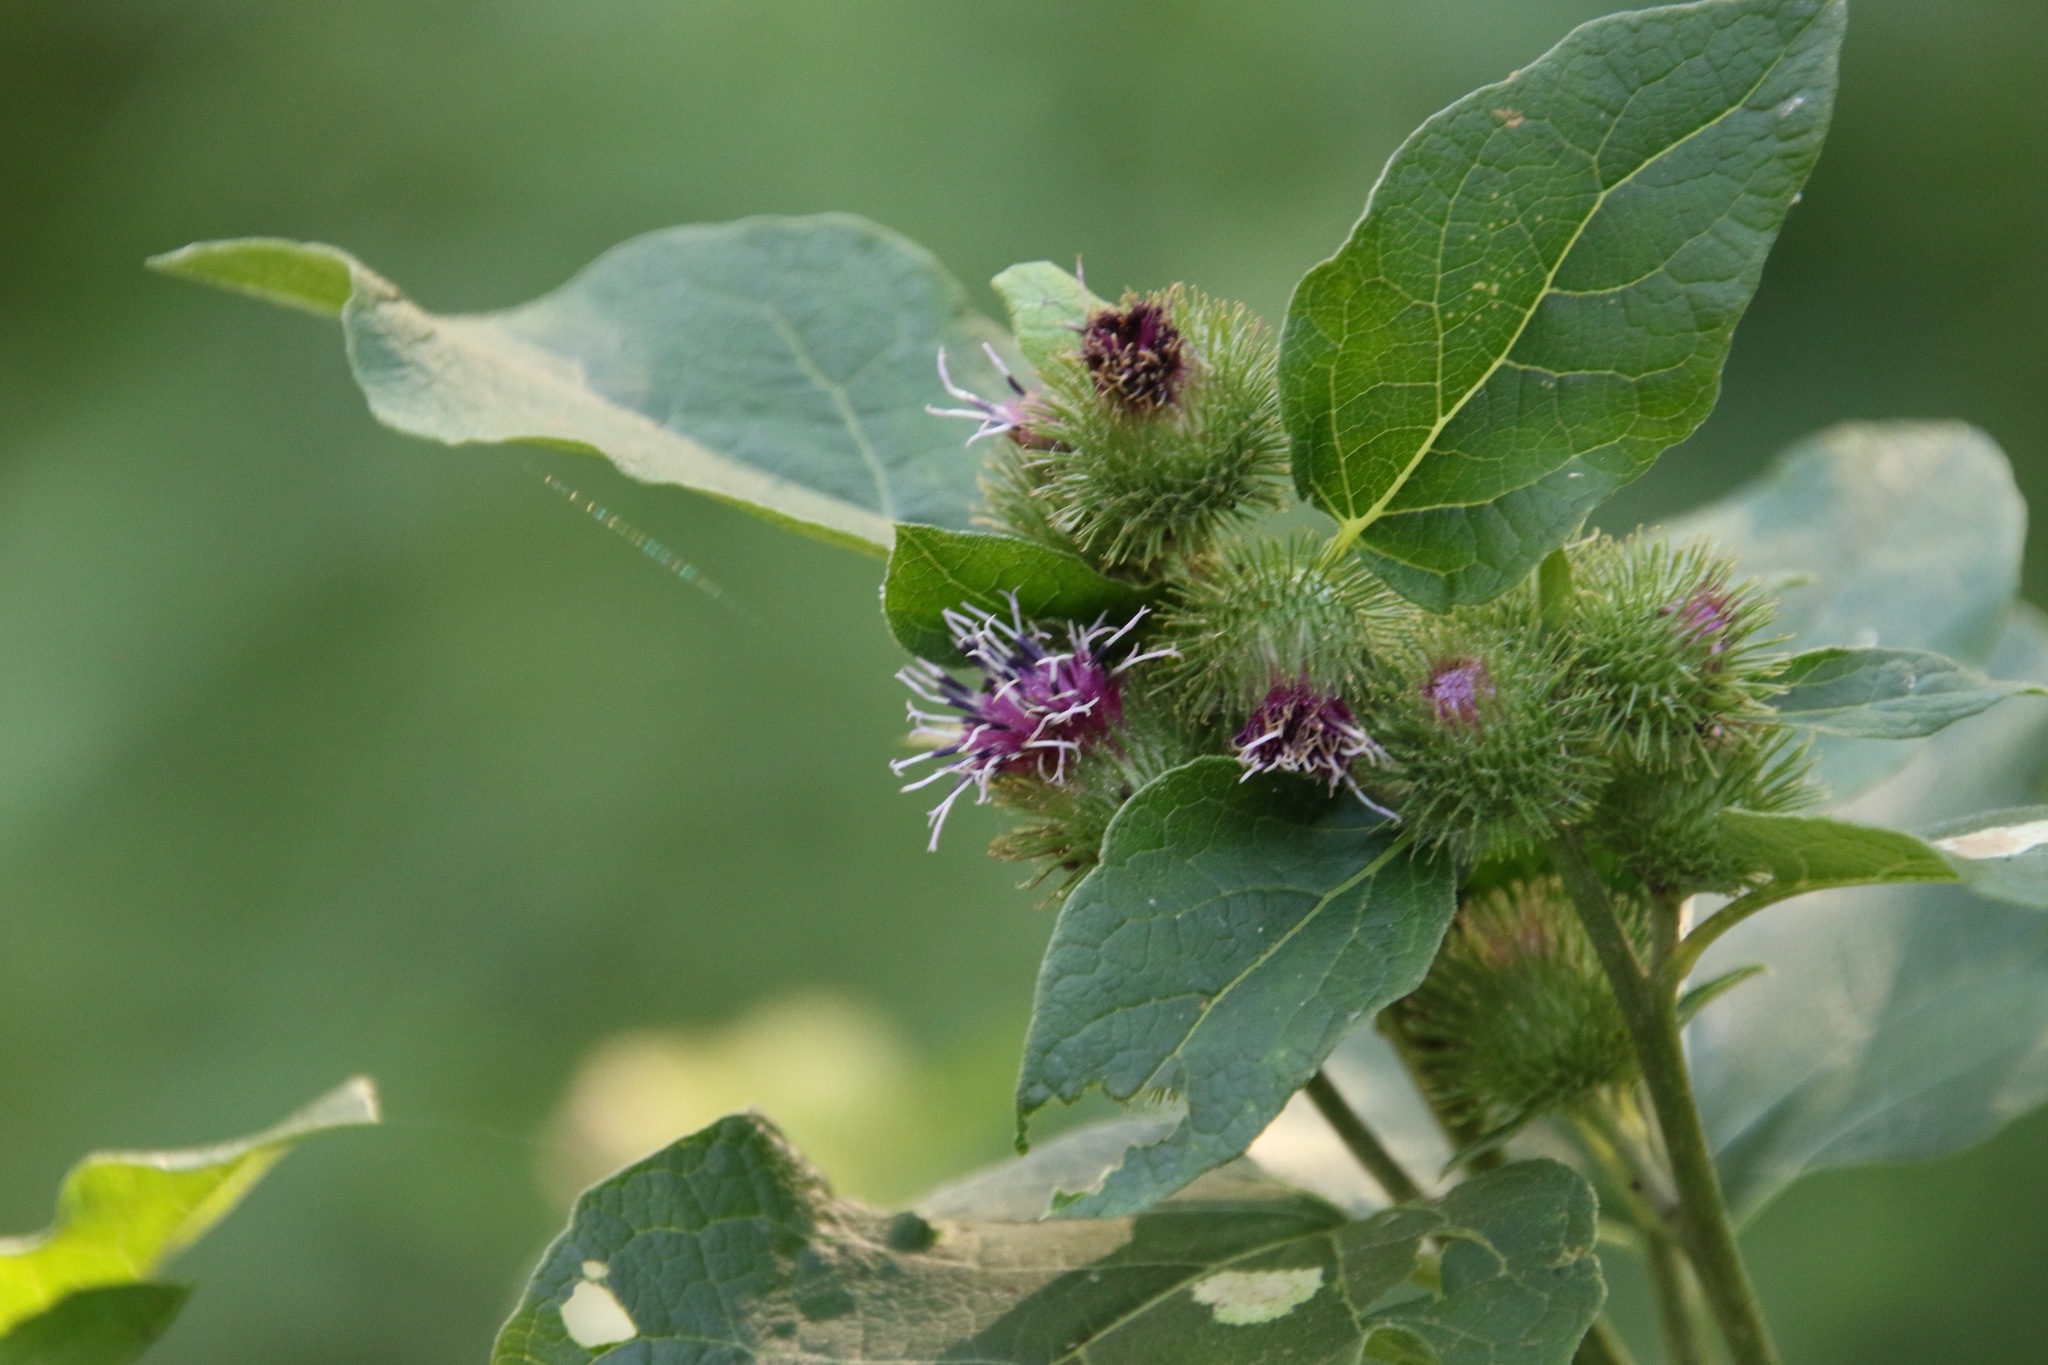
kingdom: Plantae
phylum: Tracheophyta
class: Magnoliopsida
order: Asterales
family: Asteraceae
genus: Arctium
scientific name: Arctium minus
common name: Lesser burdock
